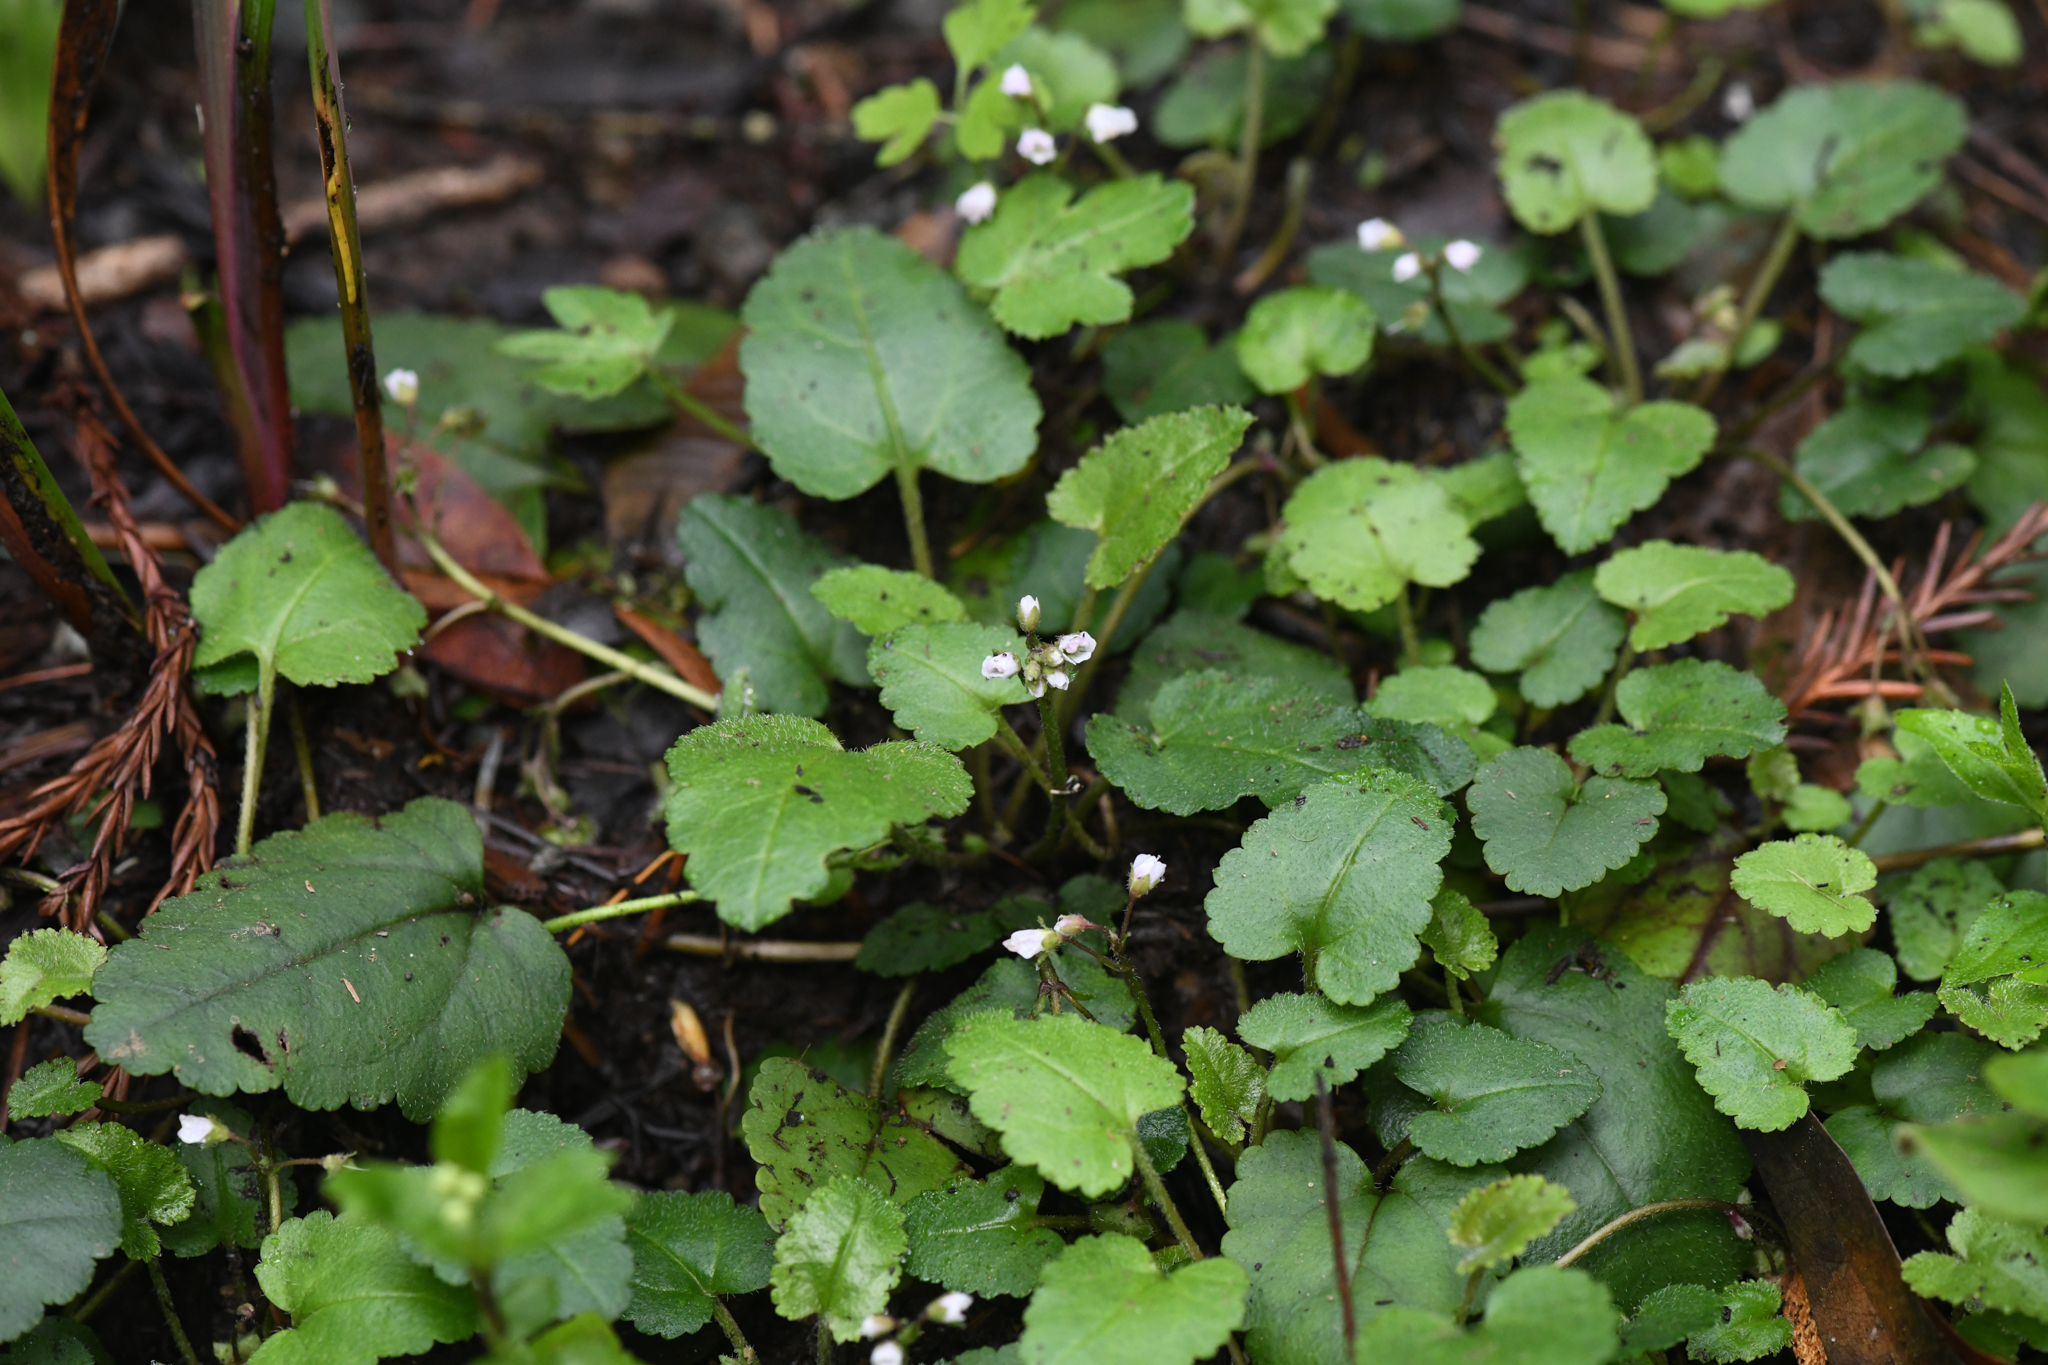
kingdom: Plantae
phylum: Tracheophyta
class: Magnoliopsida
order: Lamiales
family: Plantaginaceae
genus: Synthyris
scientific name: Synthyris cordata
